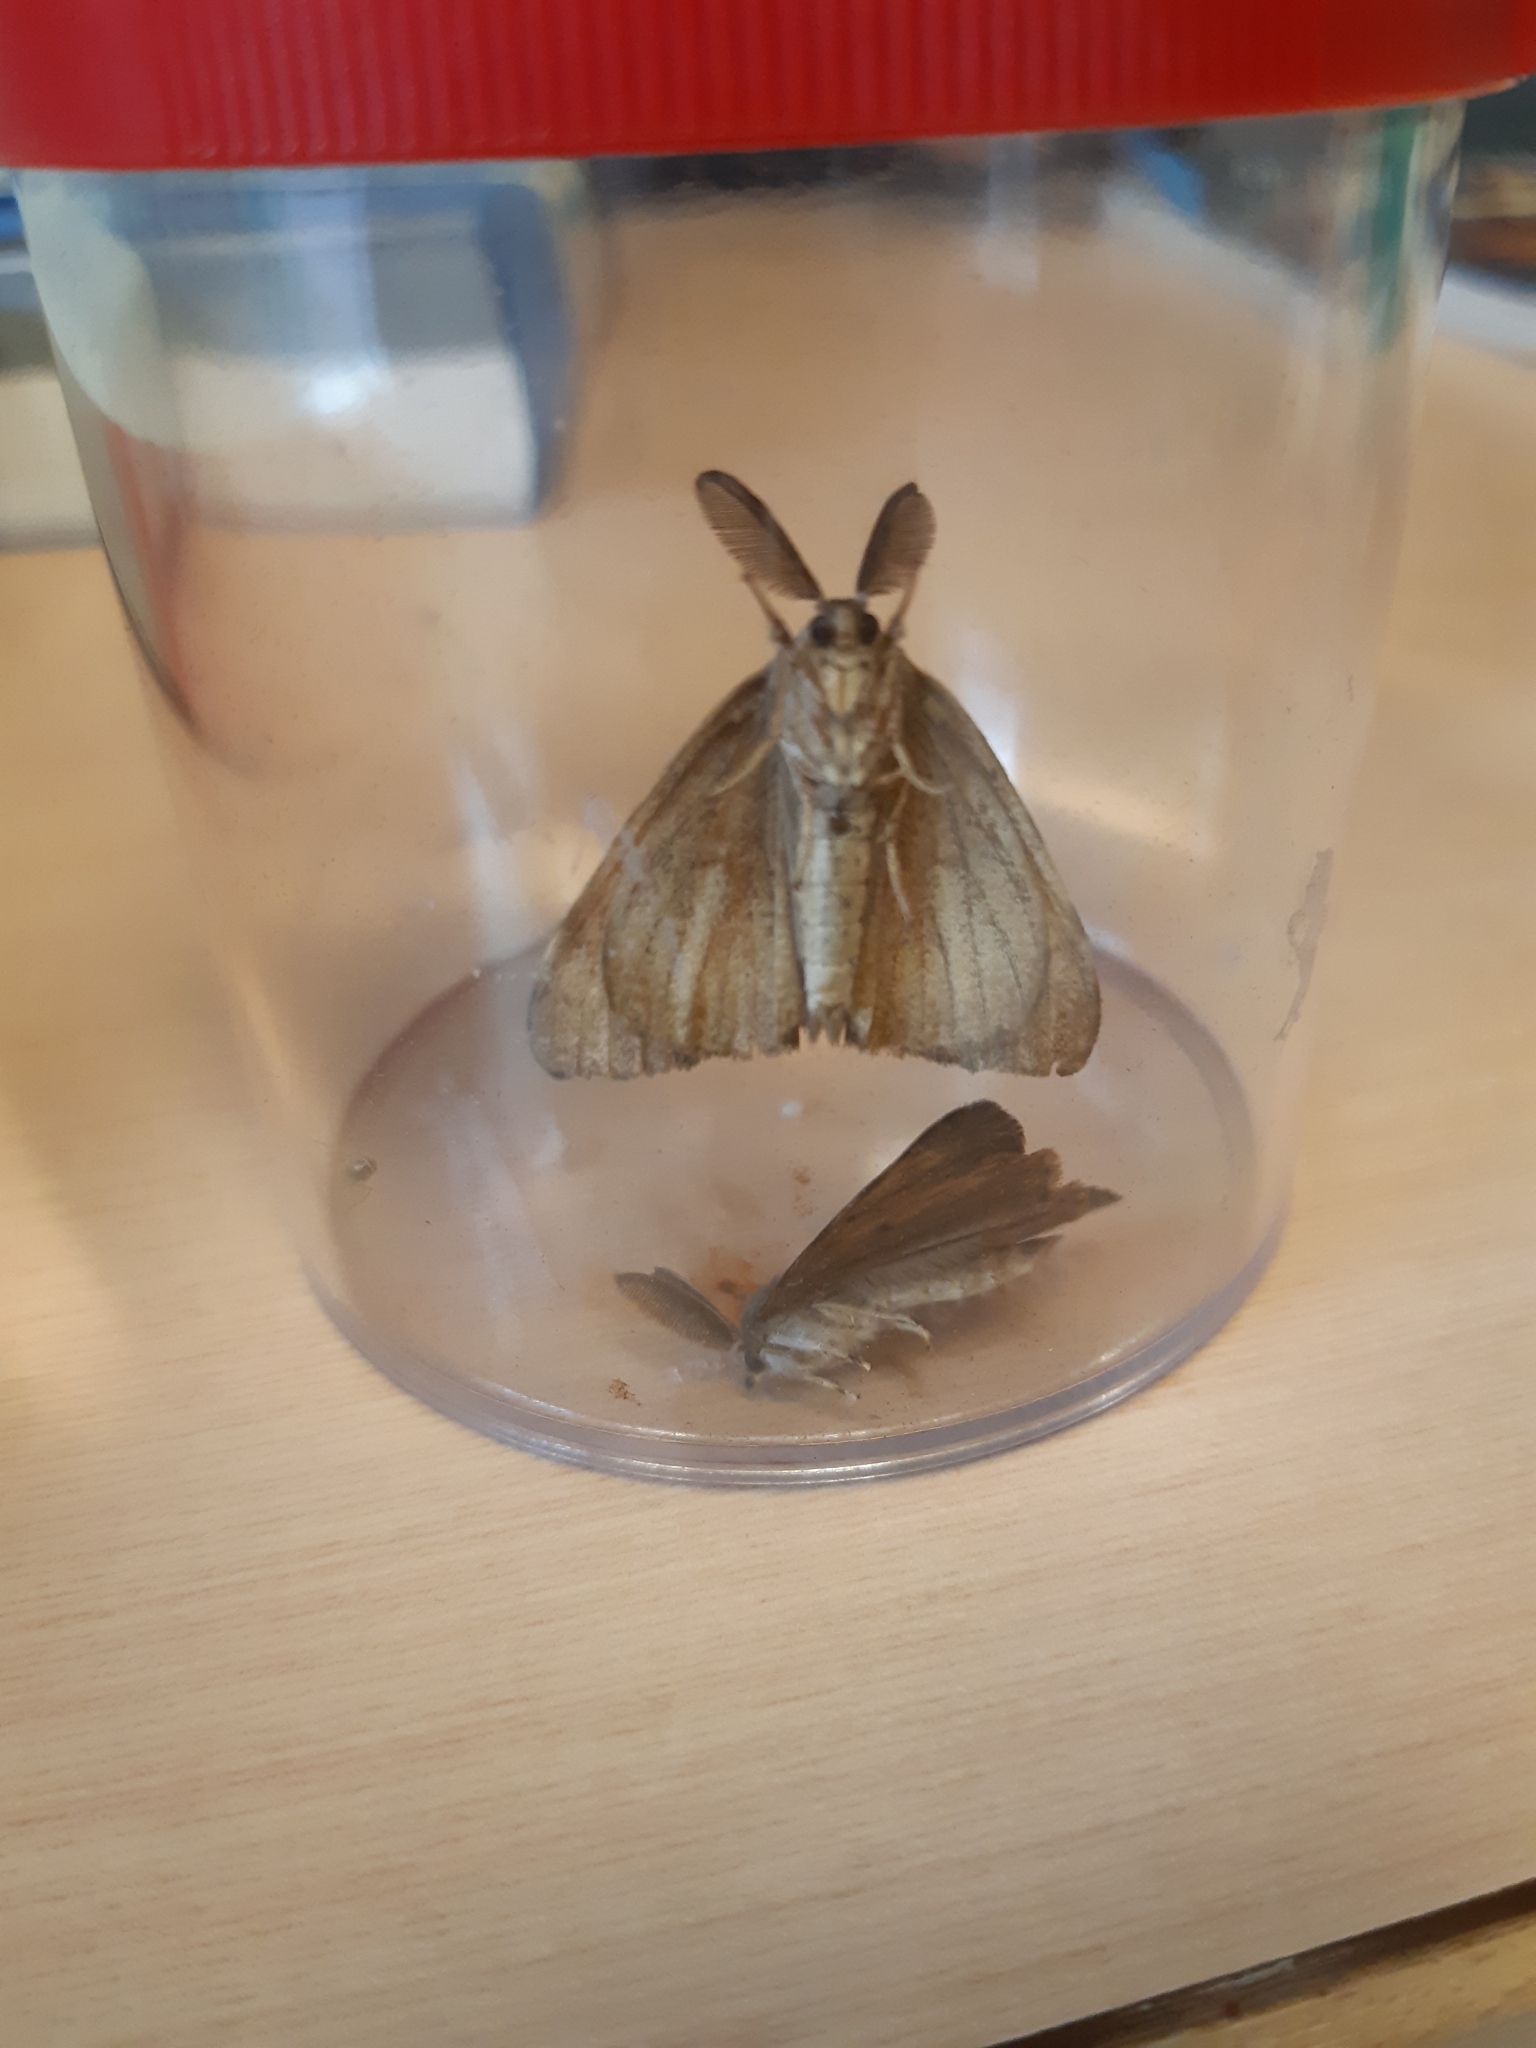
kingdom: Animalia
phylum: Arthropoda
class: Insecta
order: Lepidoptera
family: Erebidae
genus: Lymantria
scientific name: Lymantria dispar
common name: Gypsy moth
